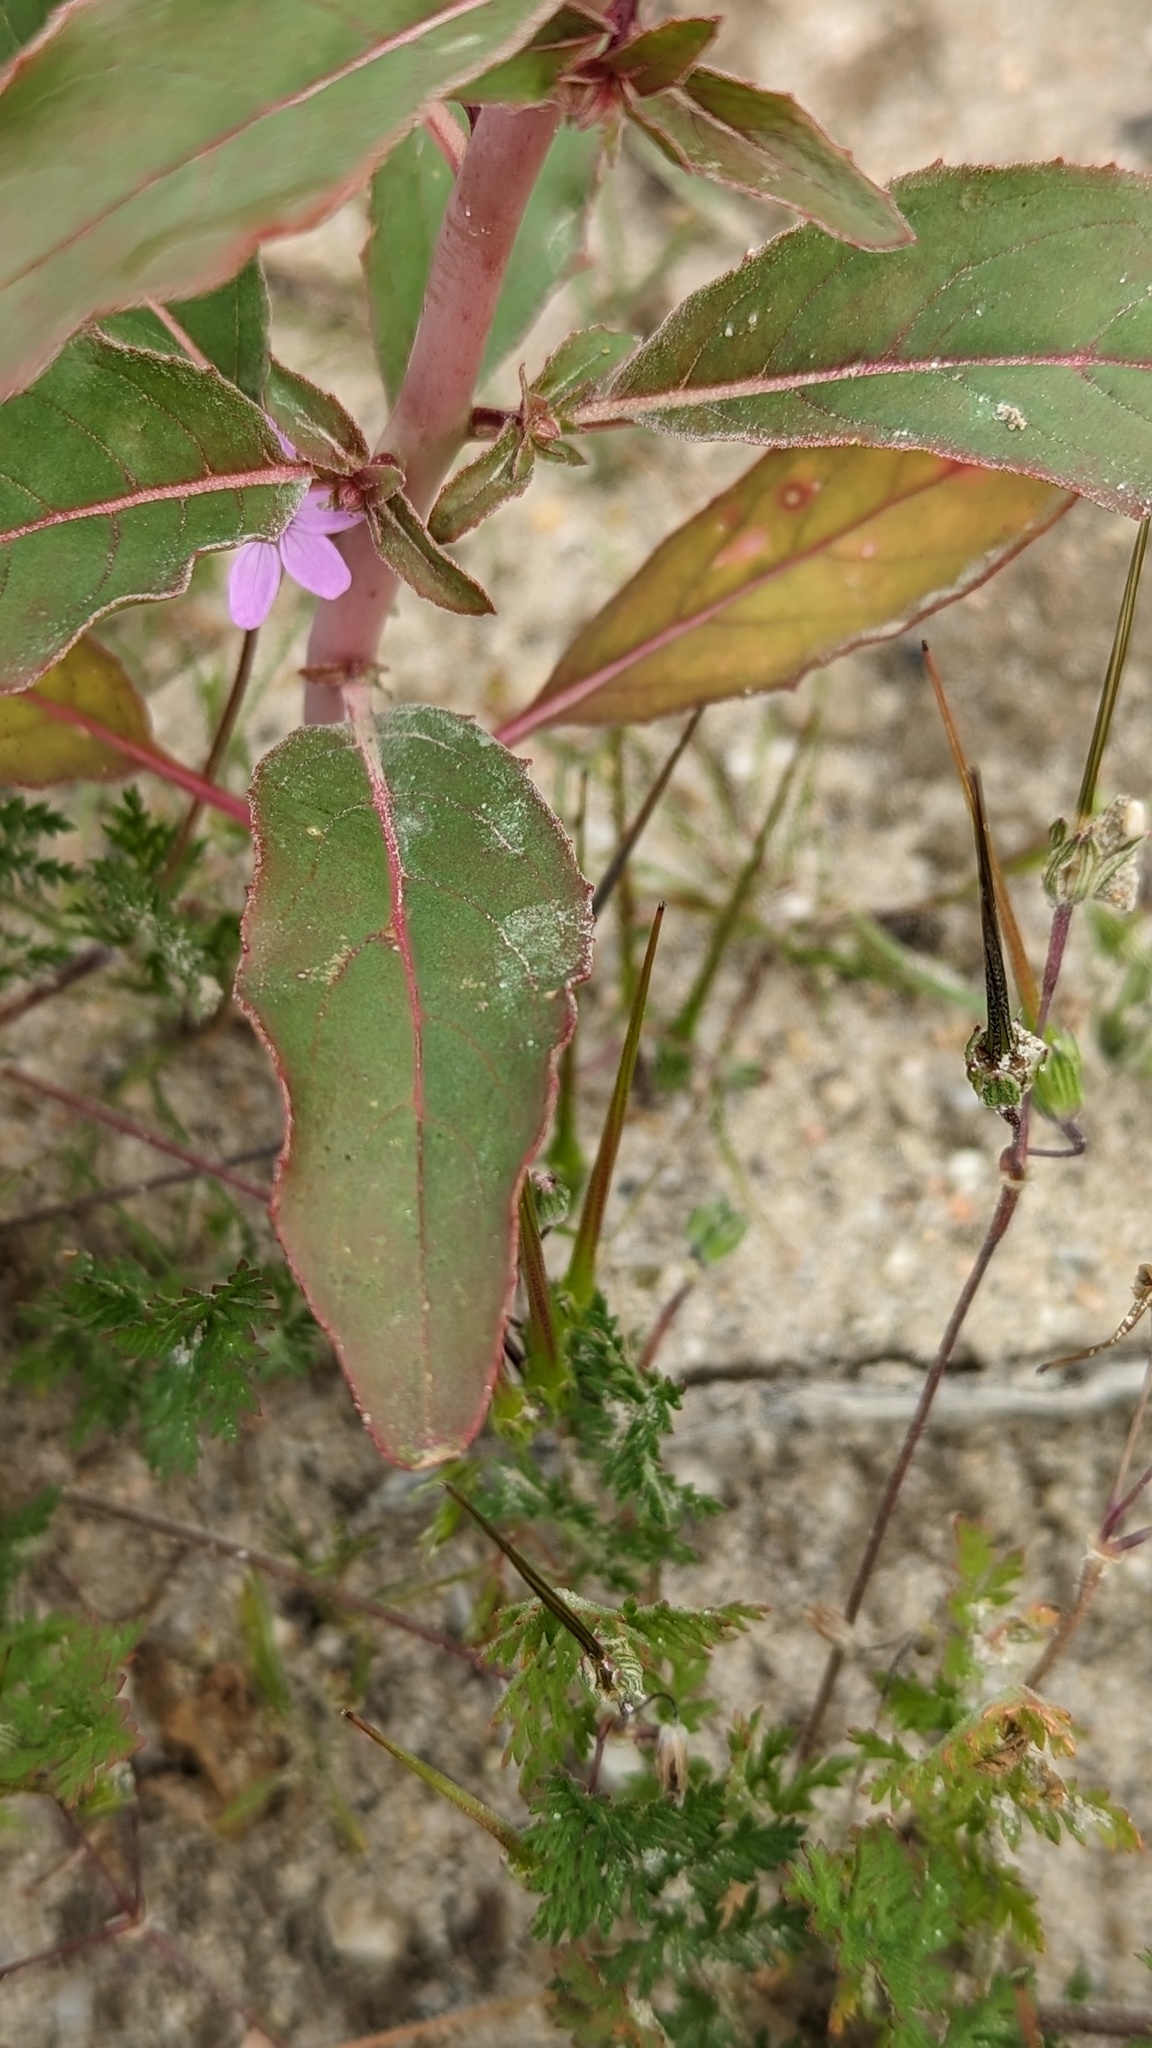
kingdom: Plantae
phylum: Tracheophyta
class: Magnoliopsida
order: Myrtales
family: Onagraceae
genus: Eremothera
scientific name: Eremothera boothii
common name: Booth's evening primrose
